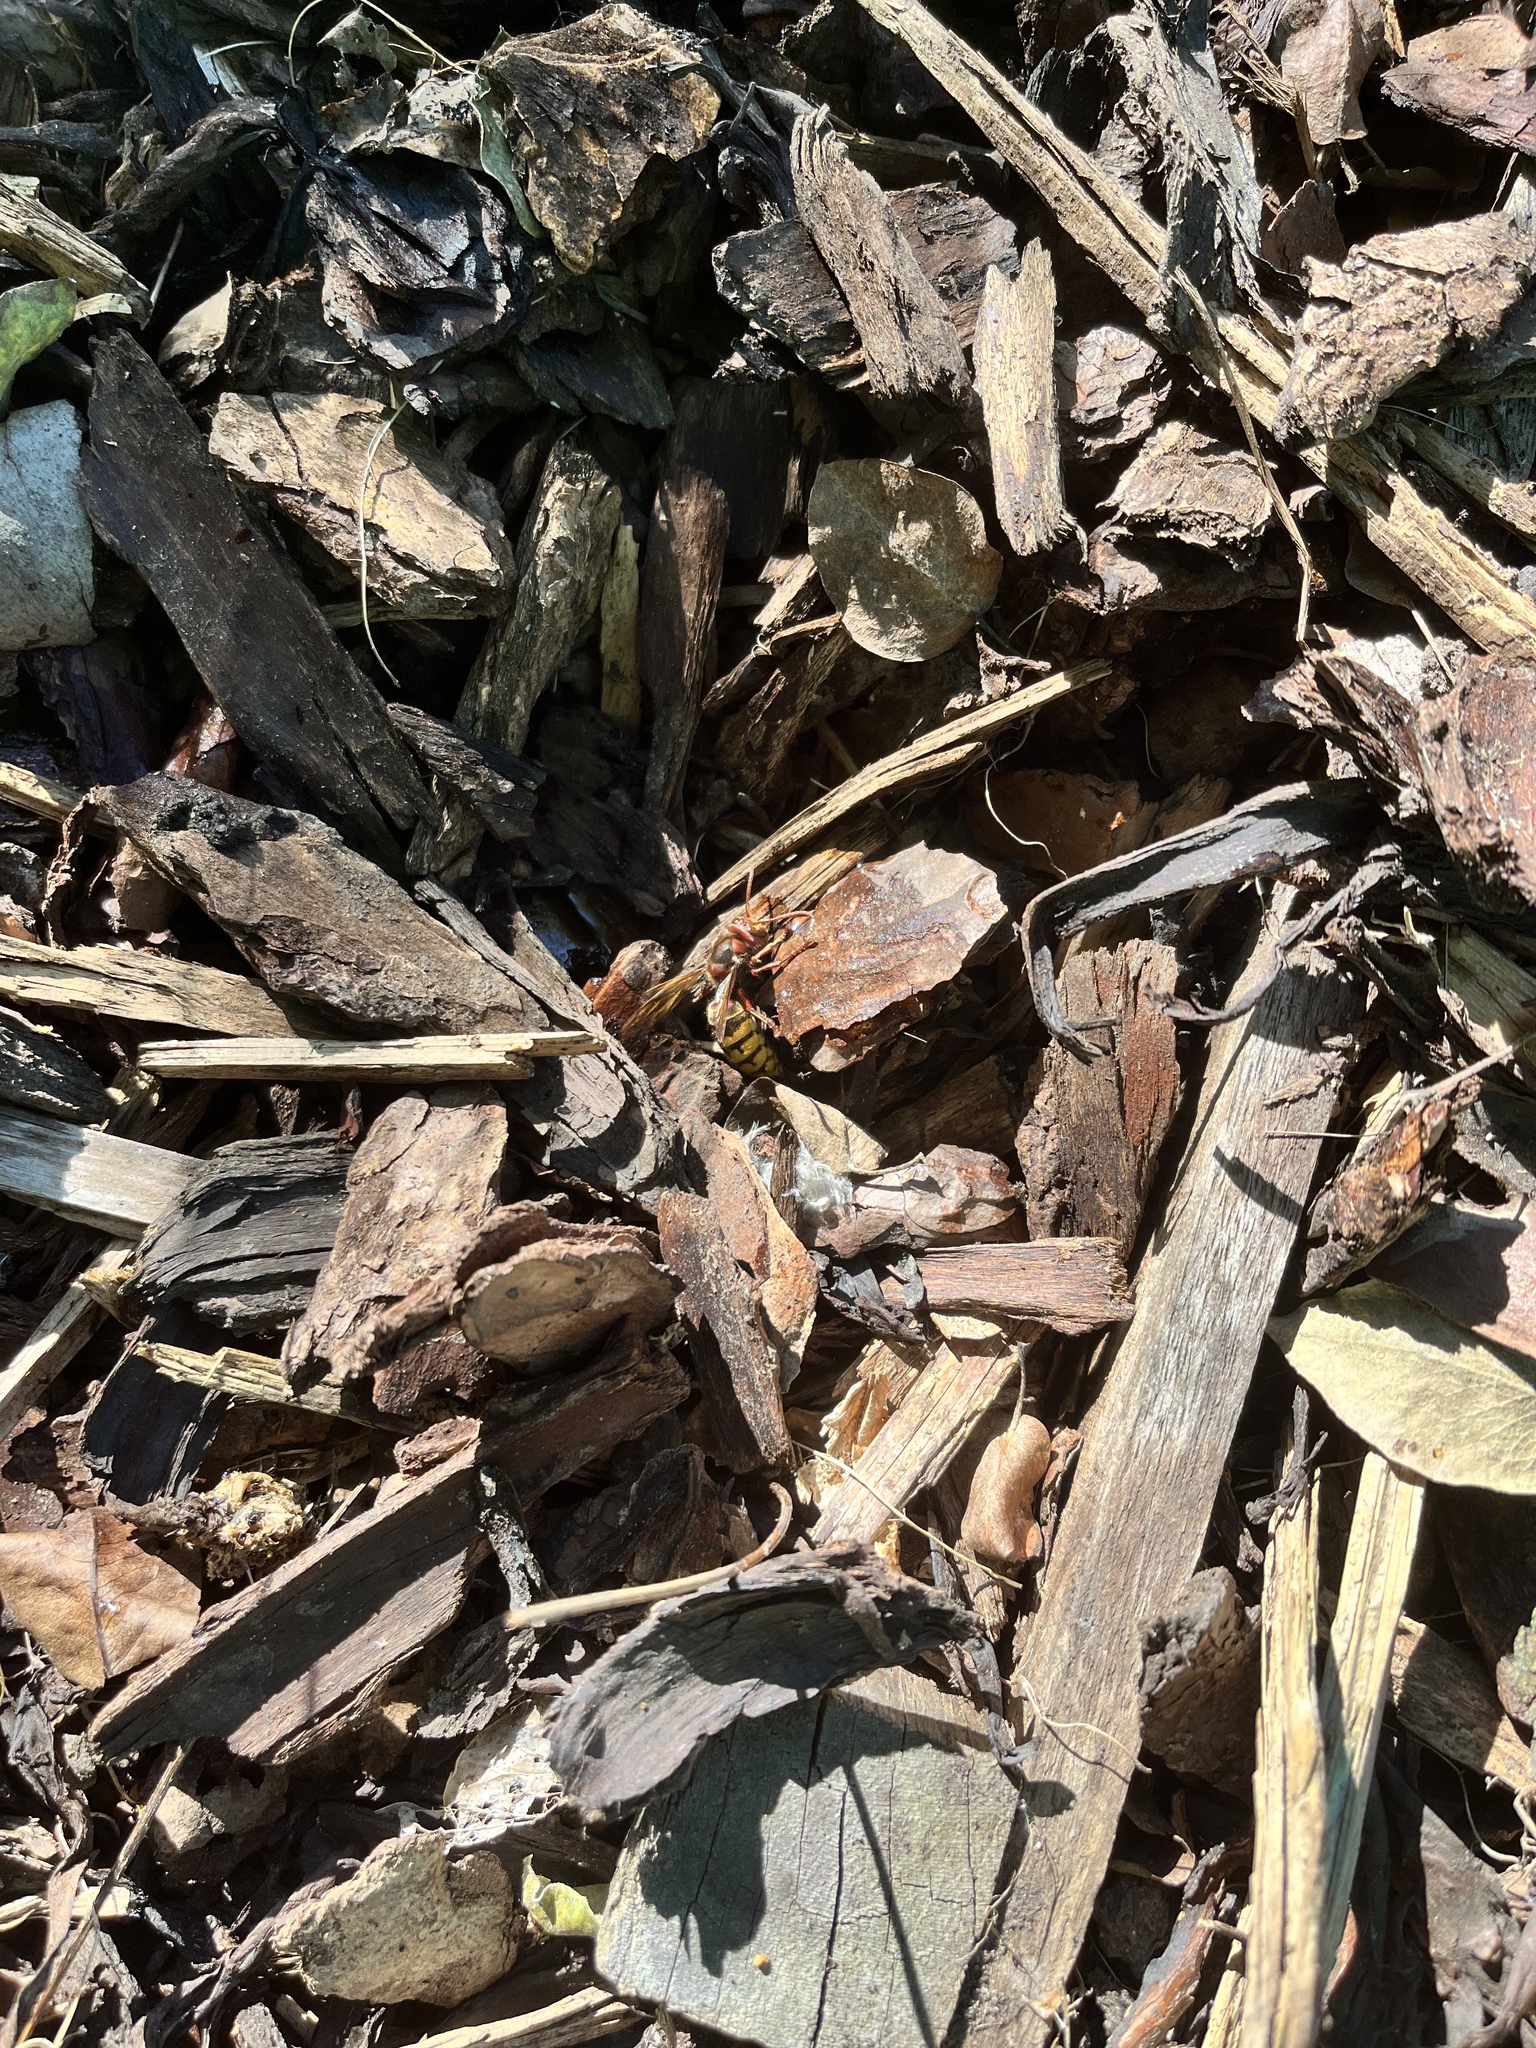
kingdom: Animalia
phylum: Arthropoda
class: Insecta
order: Hymenoptera
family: Vespidae
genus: Vespa
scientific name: Vespa crabro
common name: Hornet
